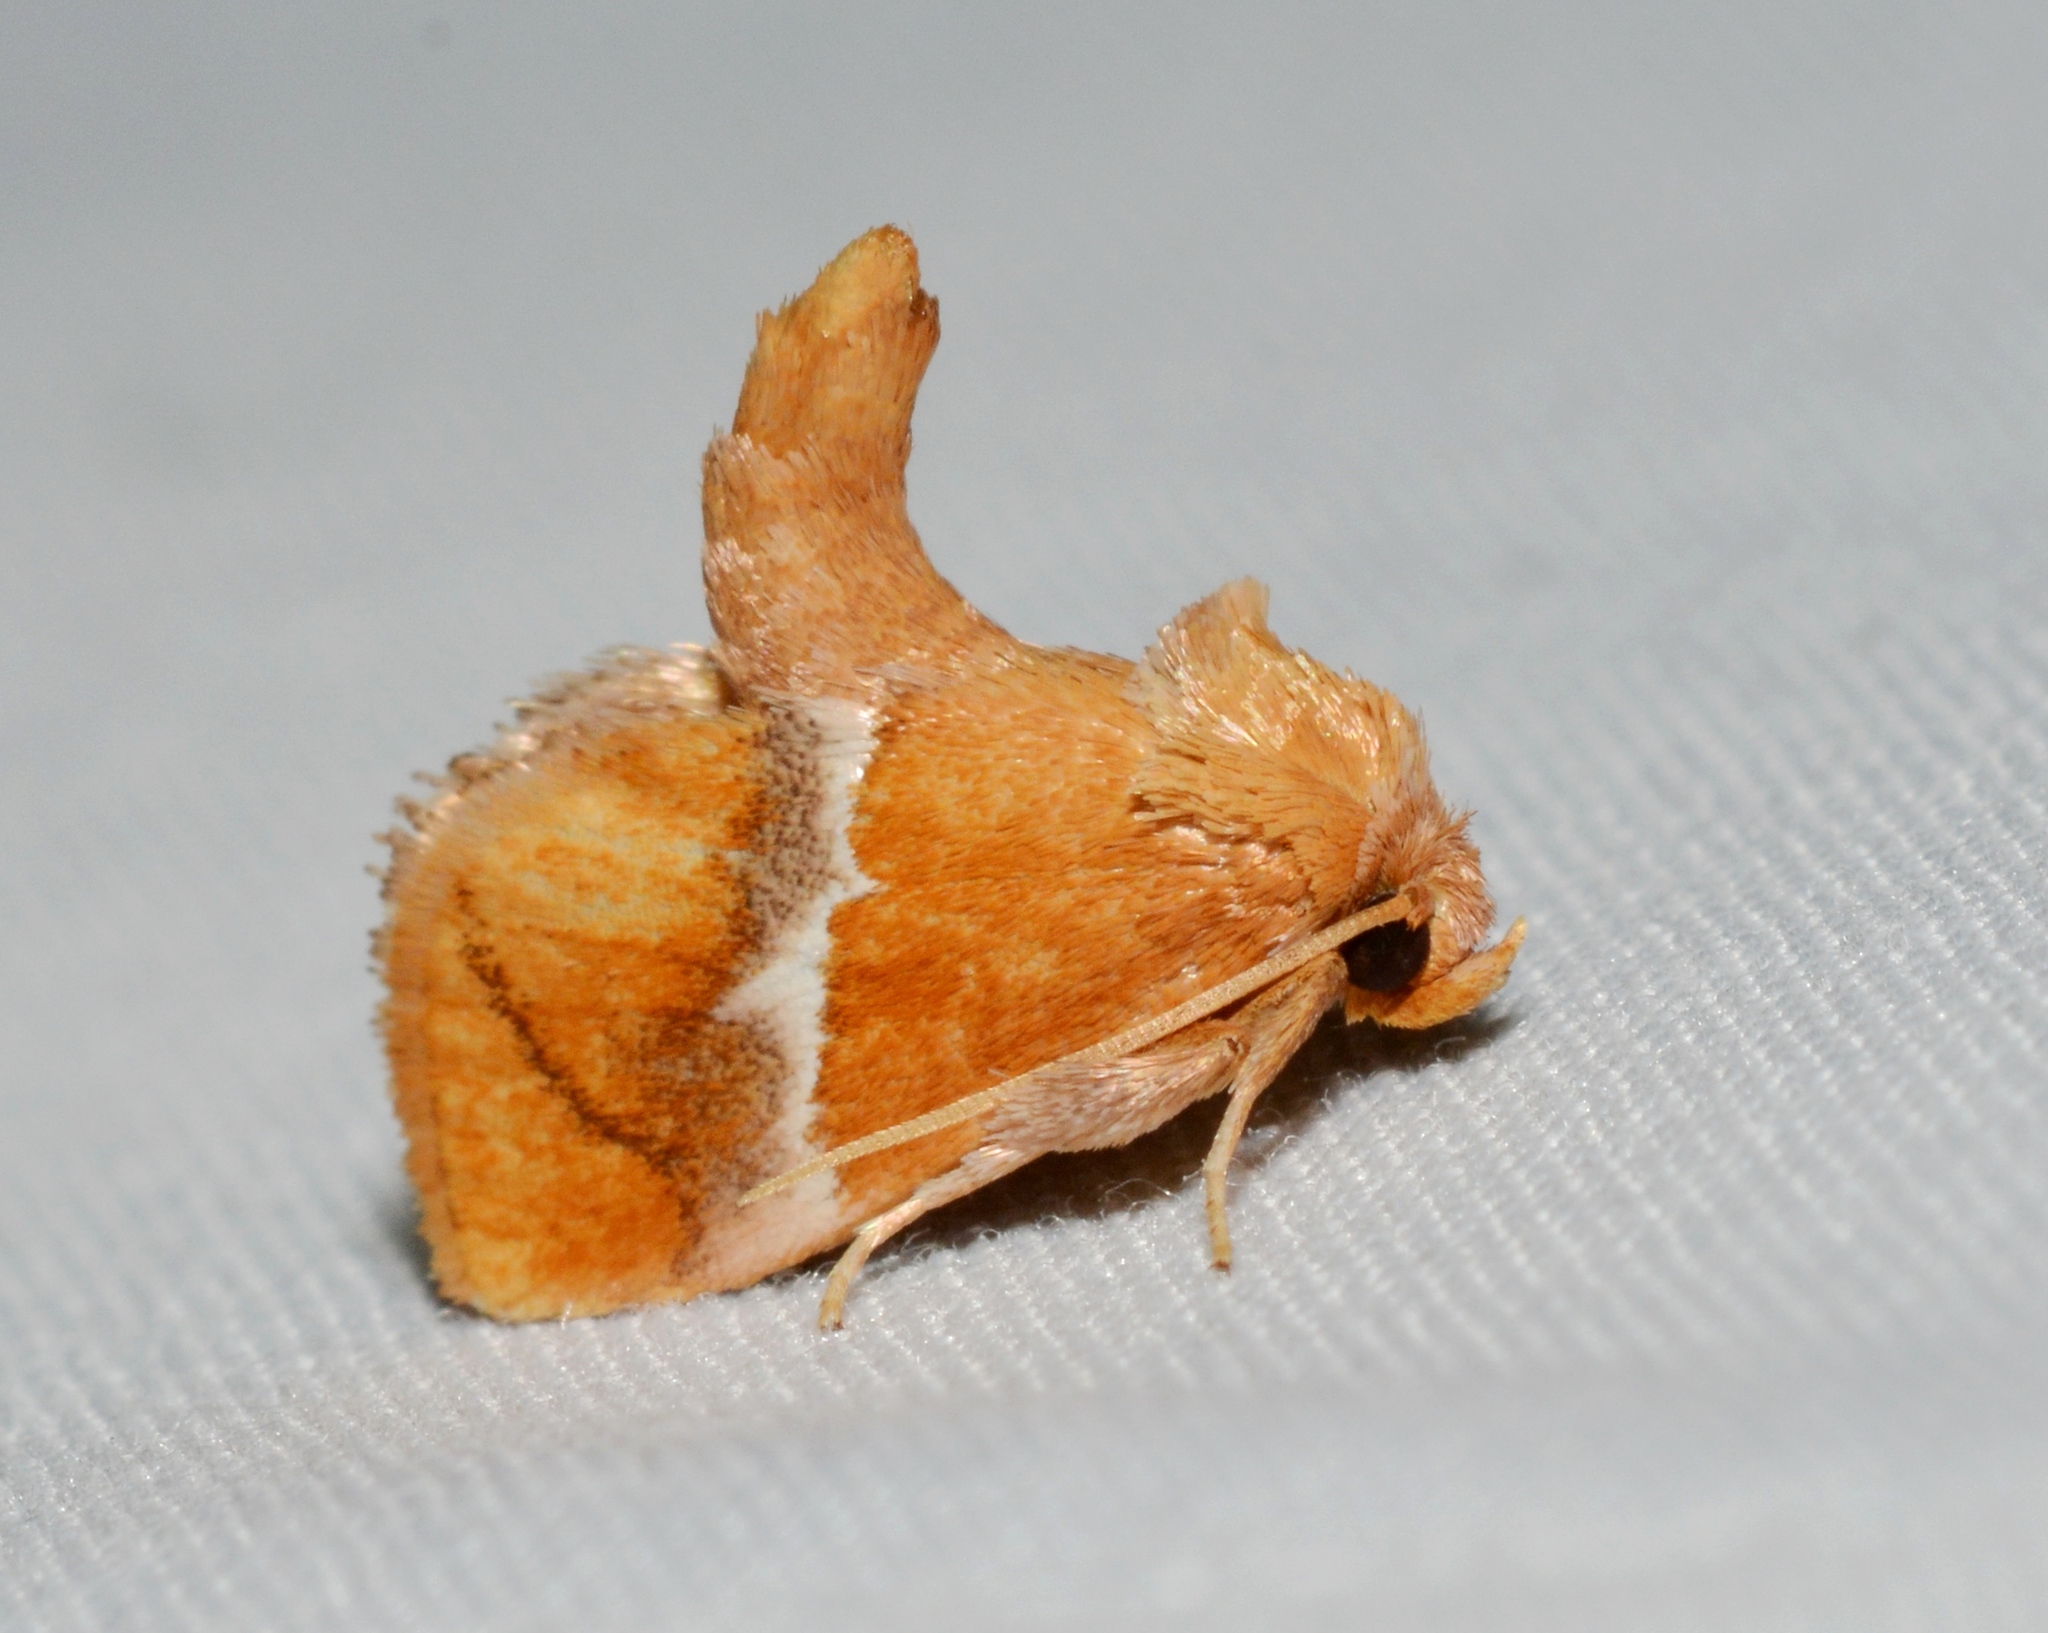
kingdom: Animalia
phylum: Arthropoda
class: Insecta
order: Lepidoptera
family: Limacodidae
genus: Lithacodes
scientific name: Lithacodes fasciola
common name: Yellow-shouldered slug moth
